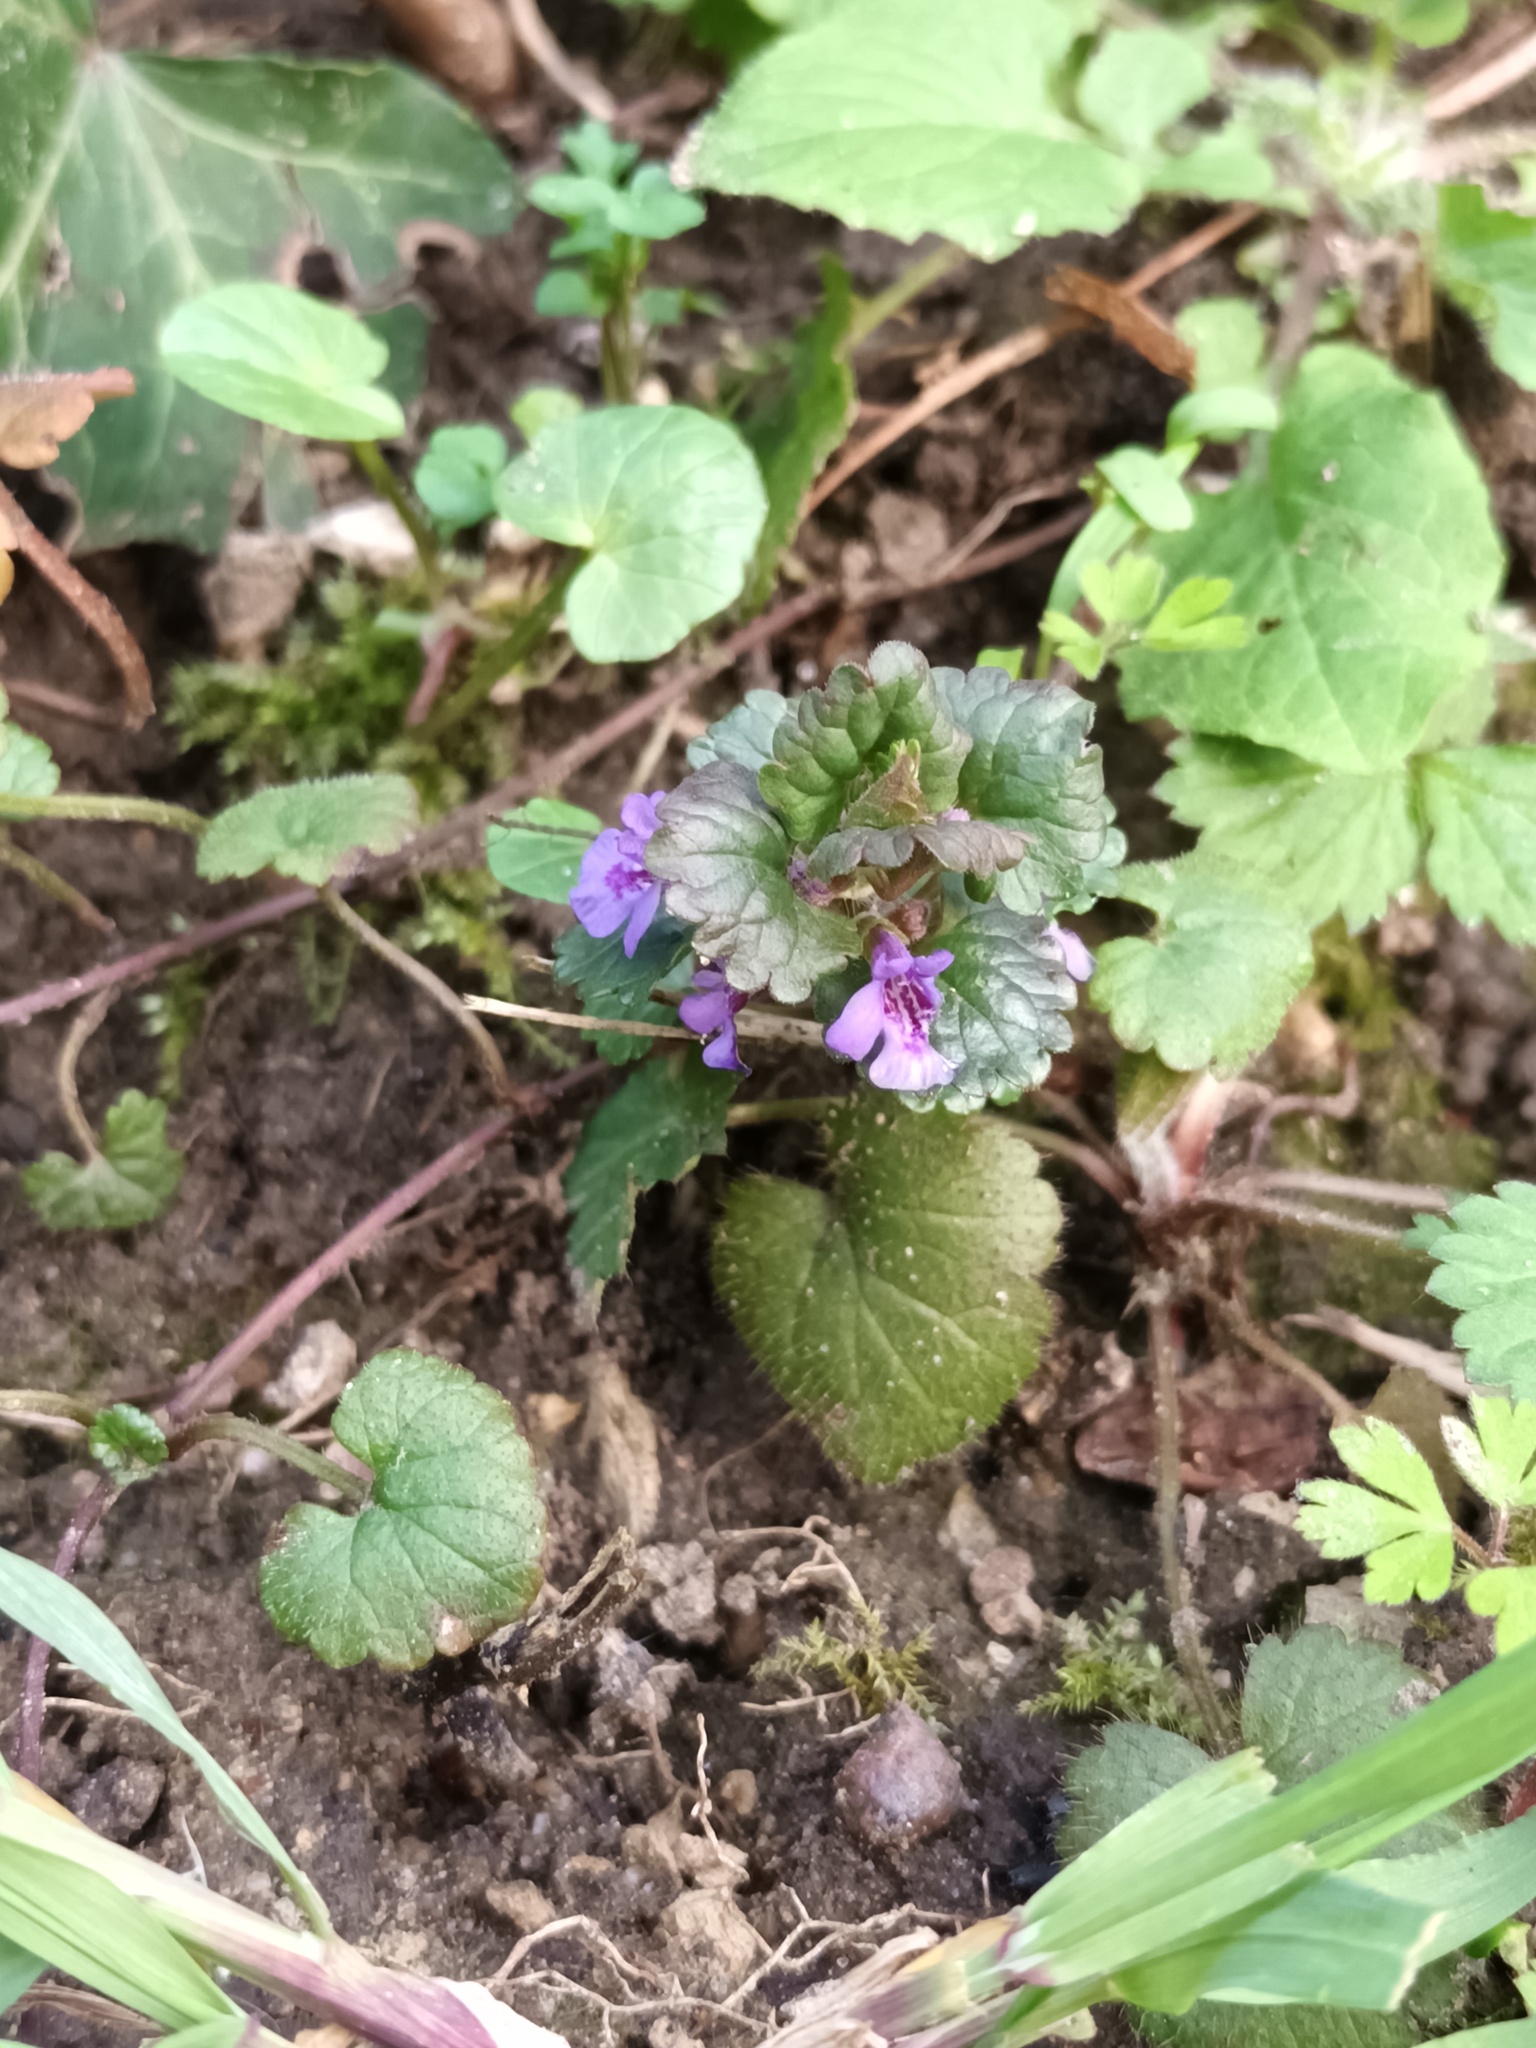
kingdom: Plantae
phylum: Tracheophyta
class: Magnoliopsida
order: Lamiales
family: Lamiaceae
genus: Glechoma
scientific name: Glechoma hederacea
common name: Ground ivy
